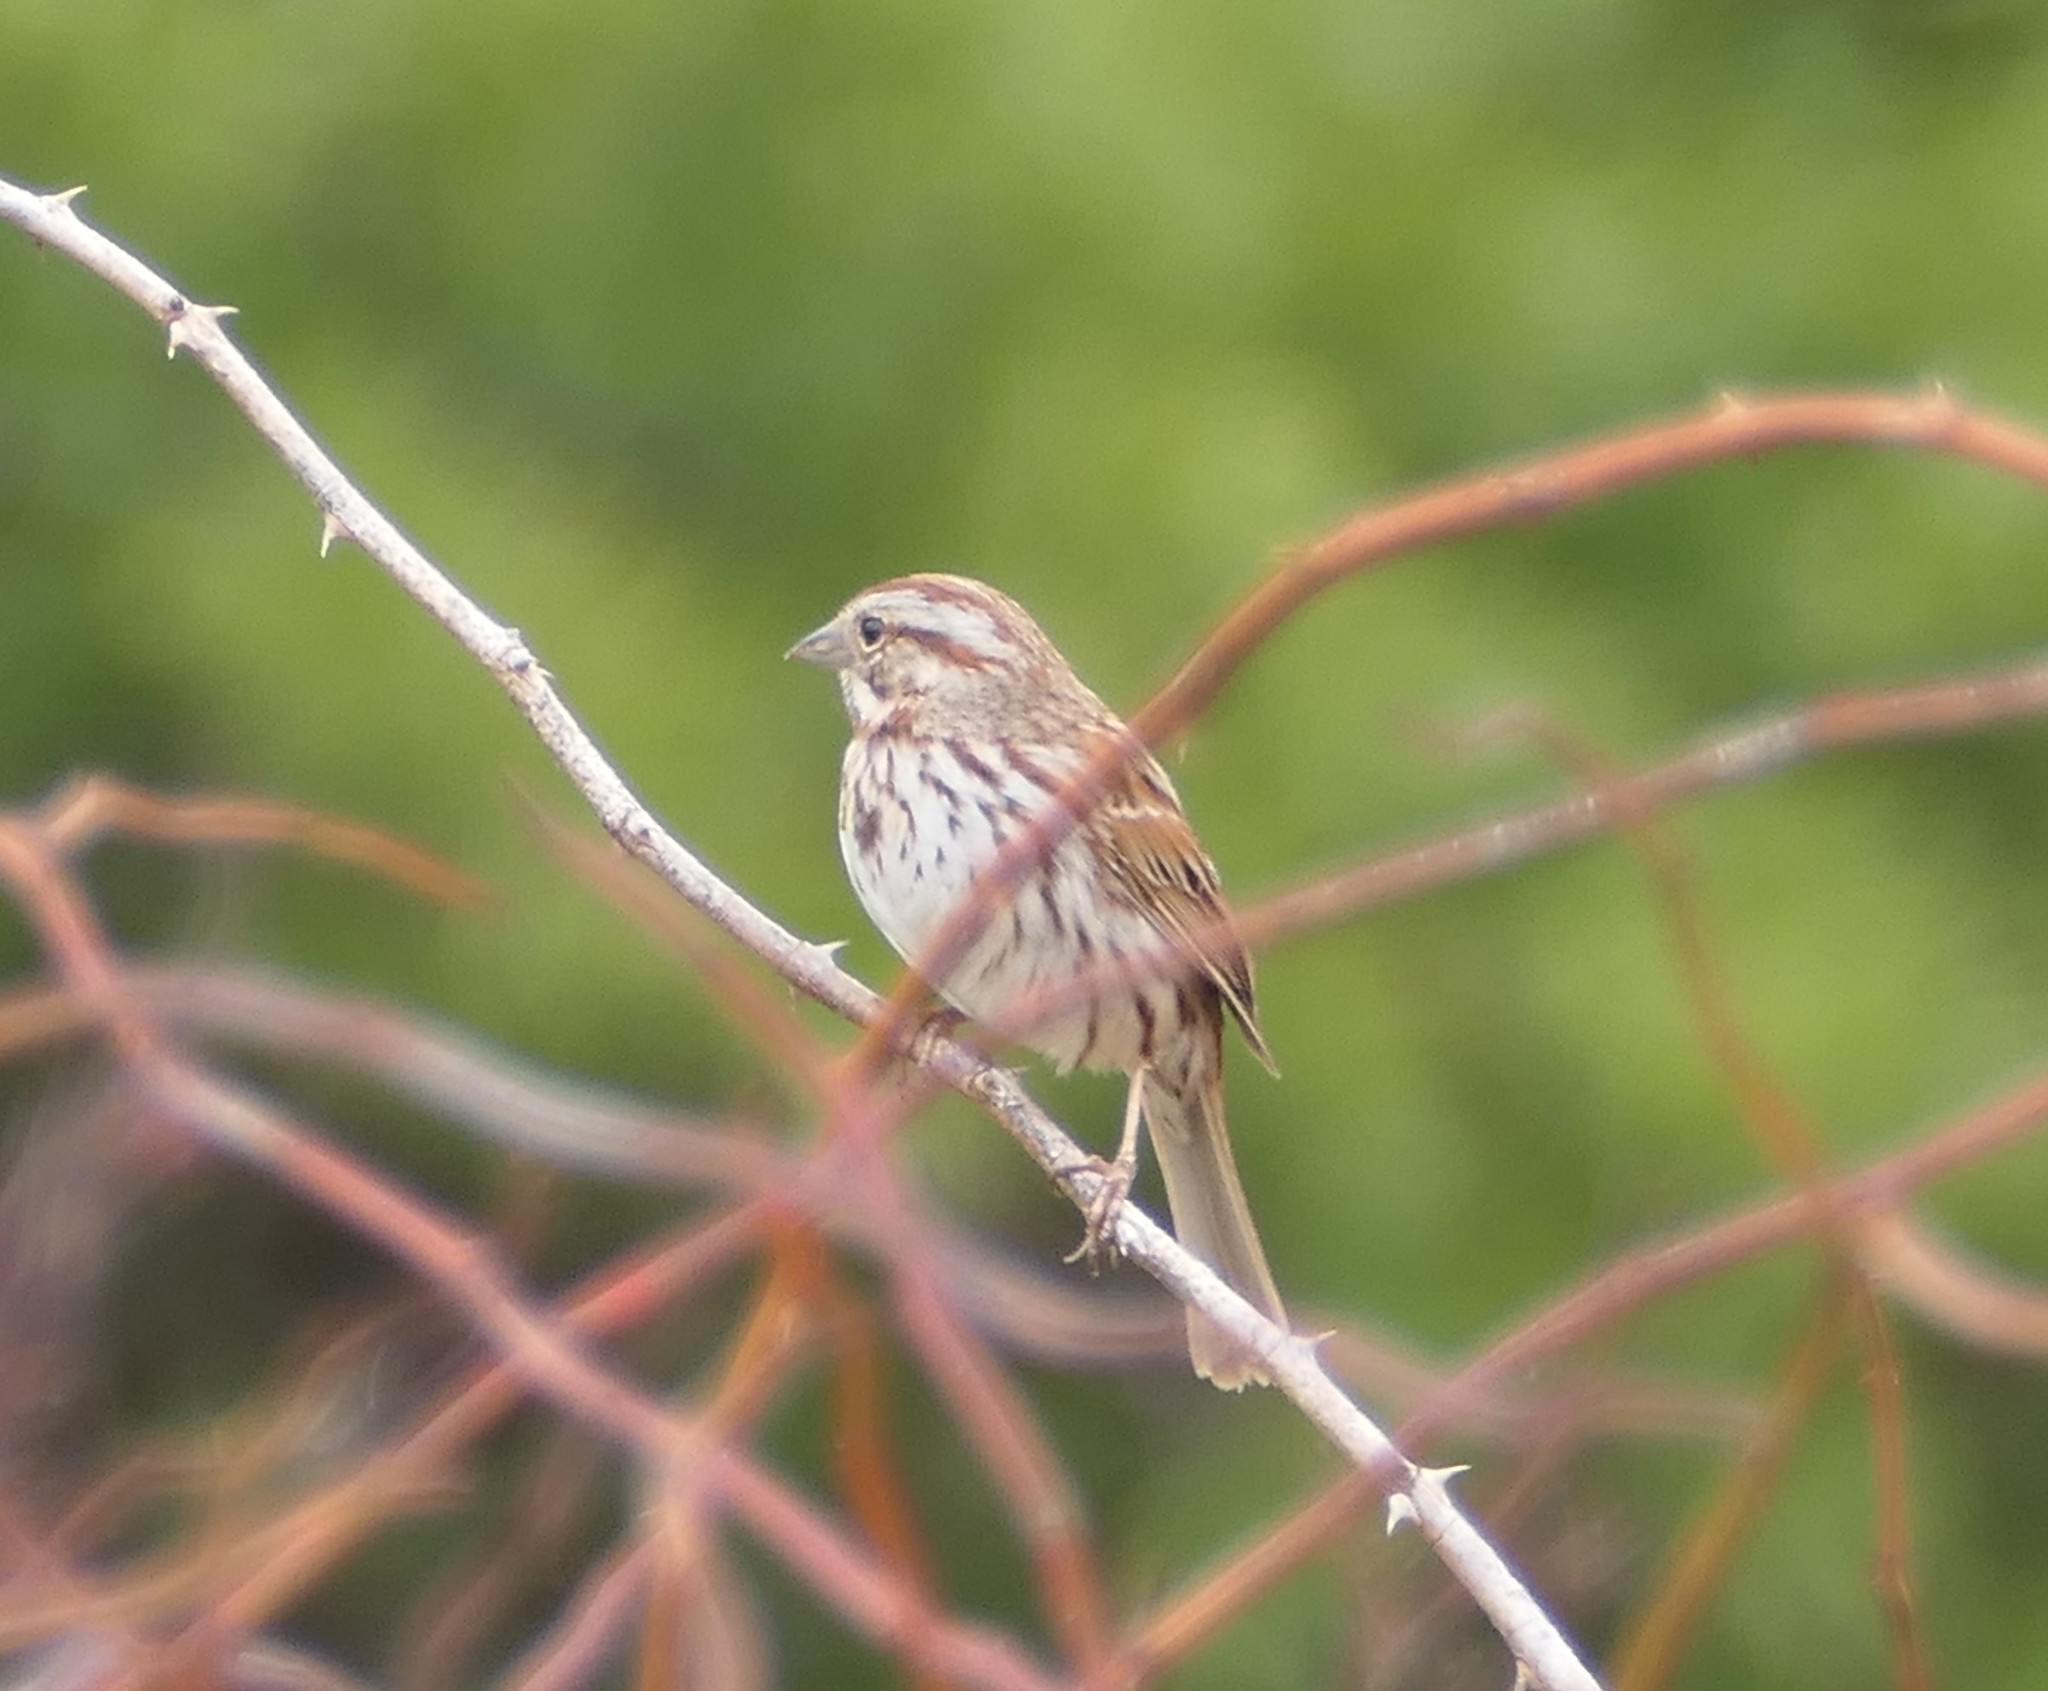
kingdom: Animalia
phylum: Chordata
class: Aves
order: Passeriformes
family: Passerellidae
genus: Melospiza
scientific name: Melospiza melodia
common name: Song sparrow
